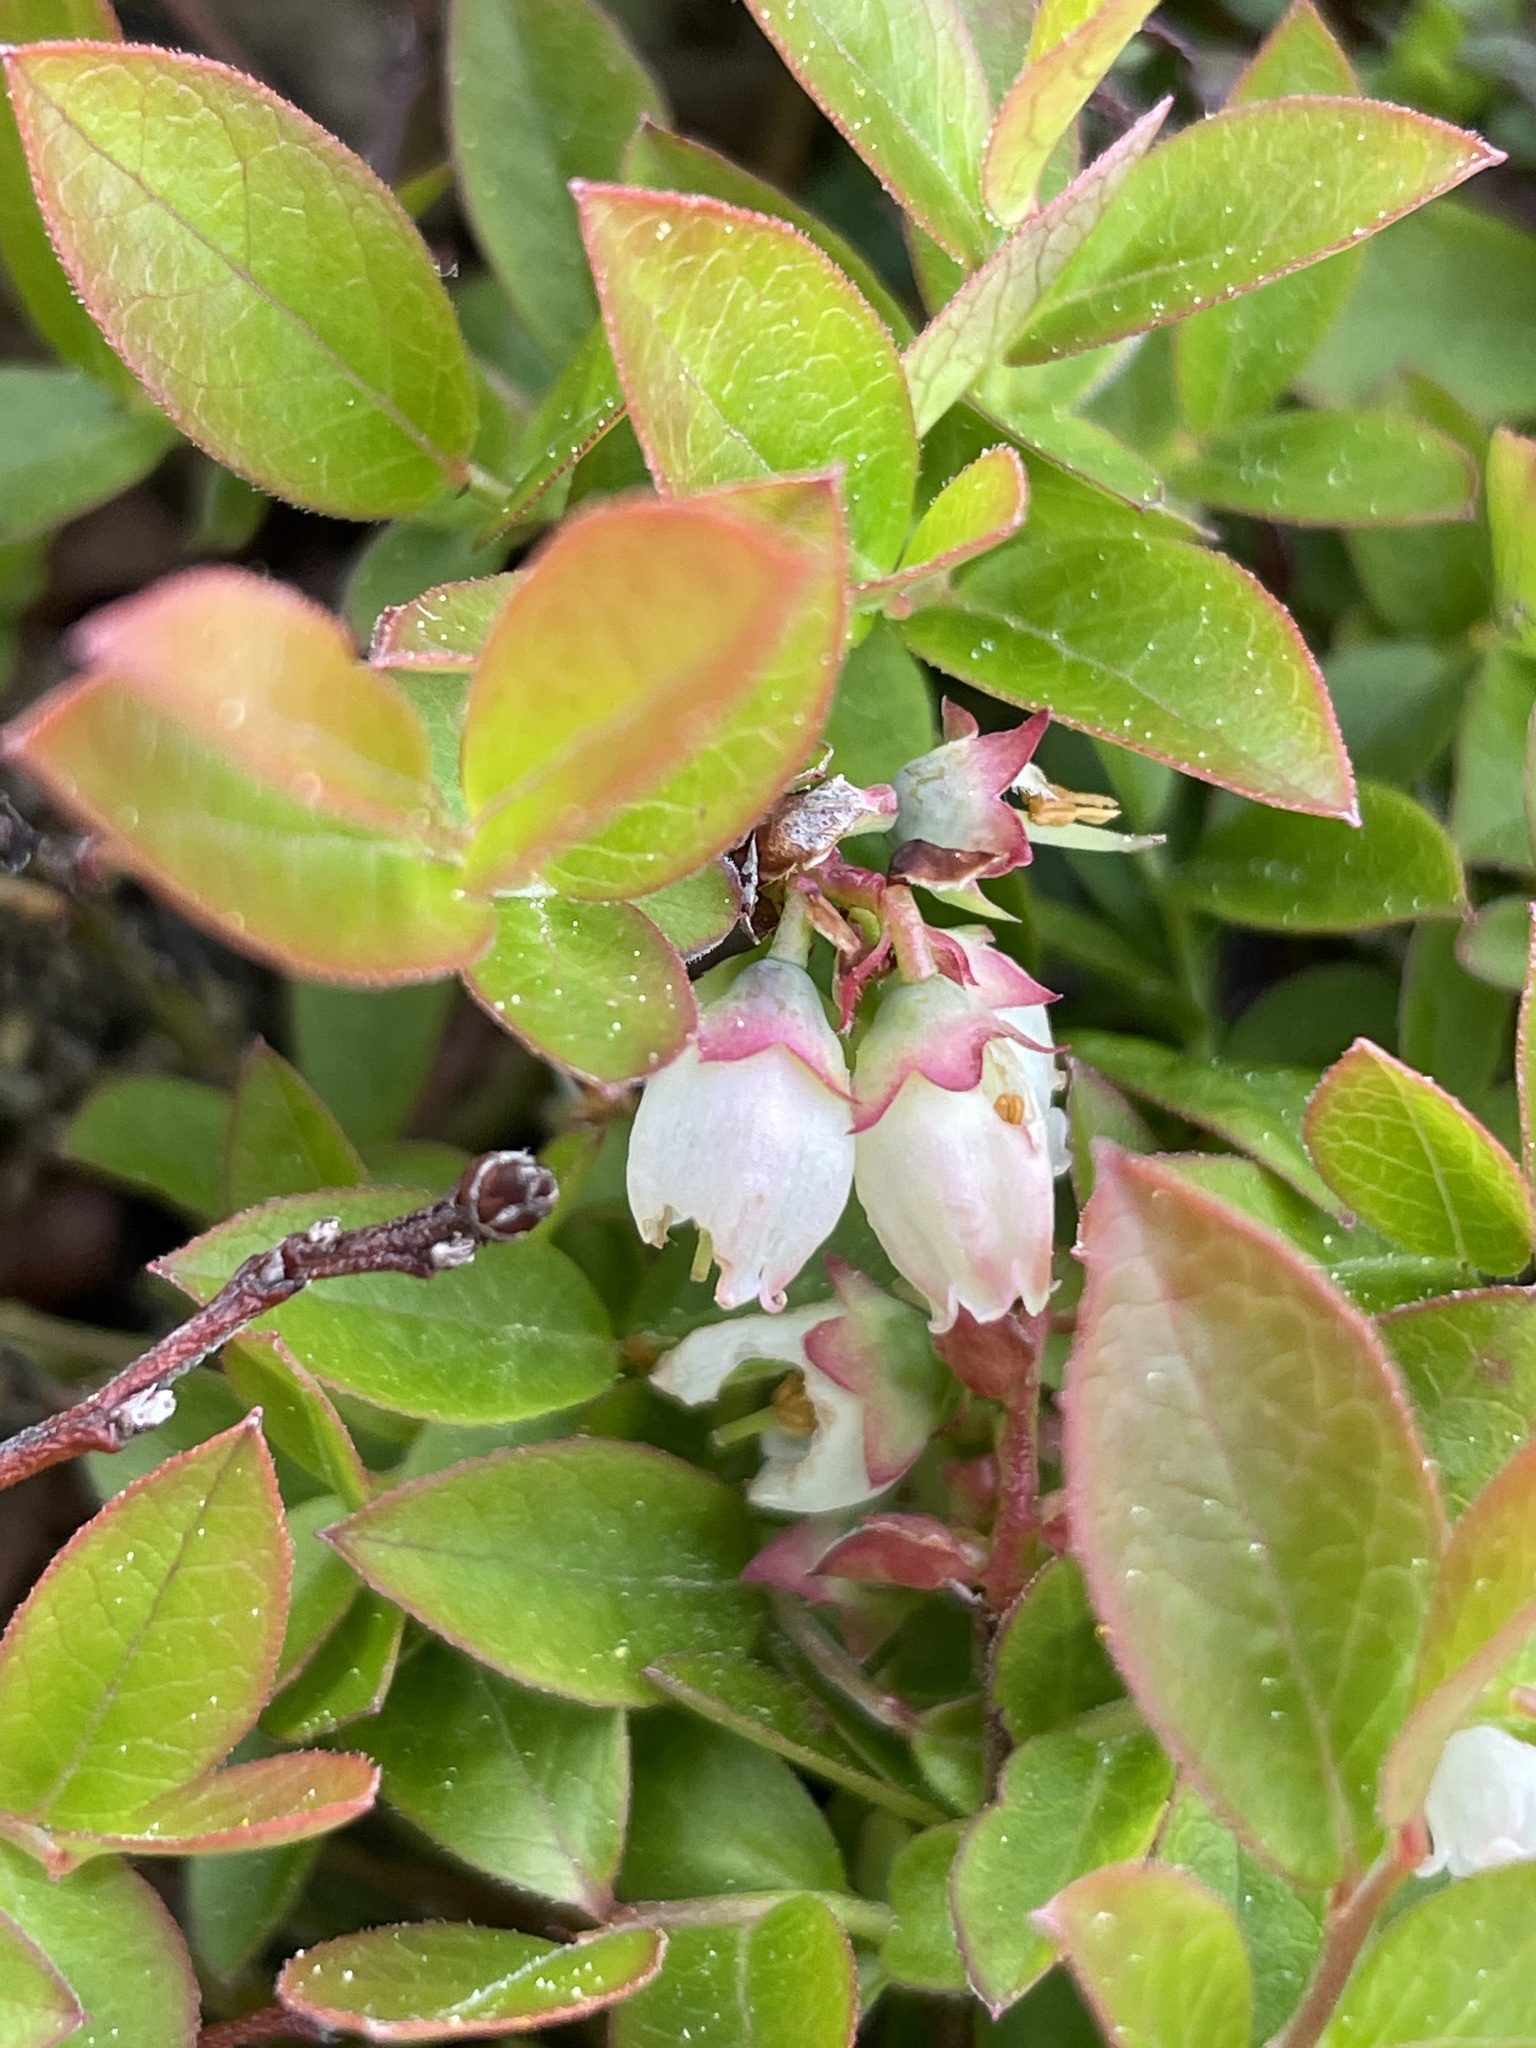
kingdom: Plantae
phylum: Tracheophyta
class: Magnoliopsida
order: Ericales
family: Ericaceae
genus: Vaccinium
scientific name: Vaccinium angustifolium
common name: Early lowbush blueberry
